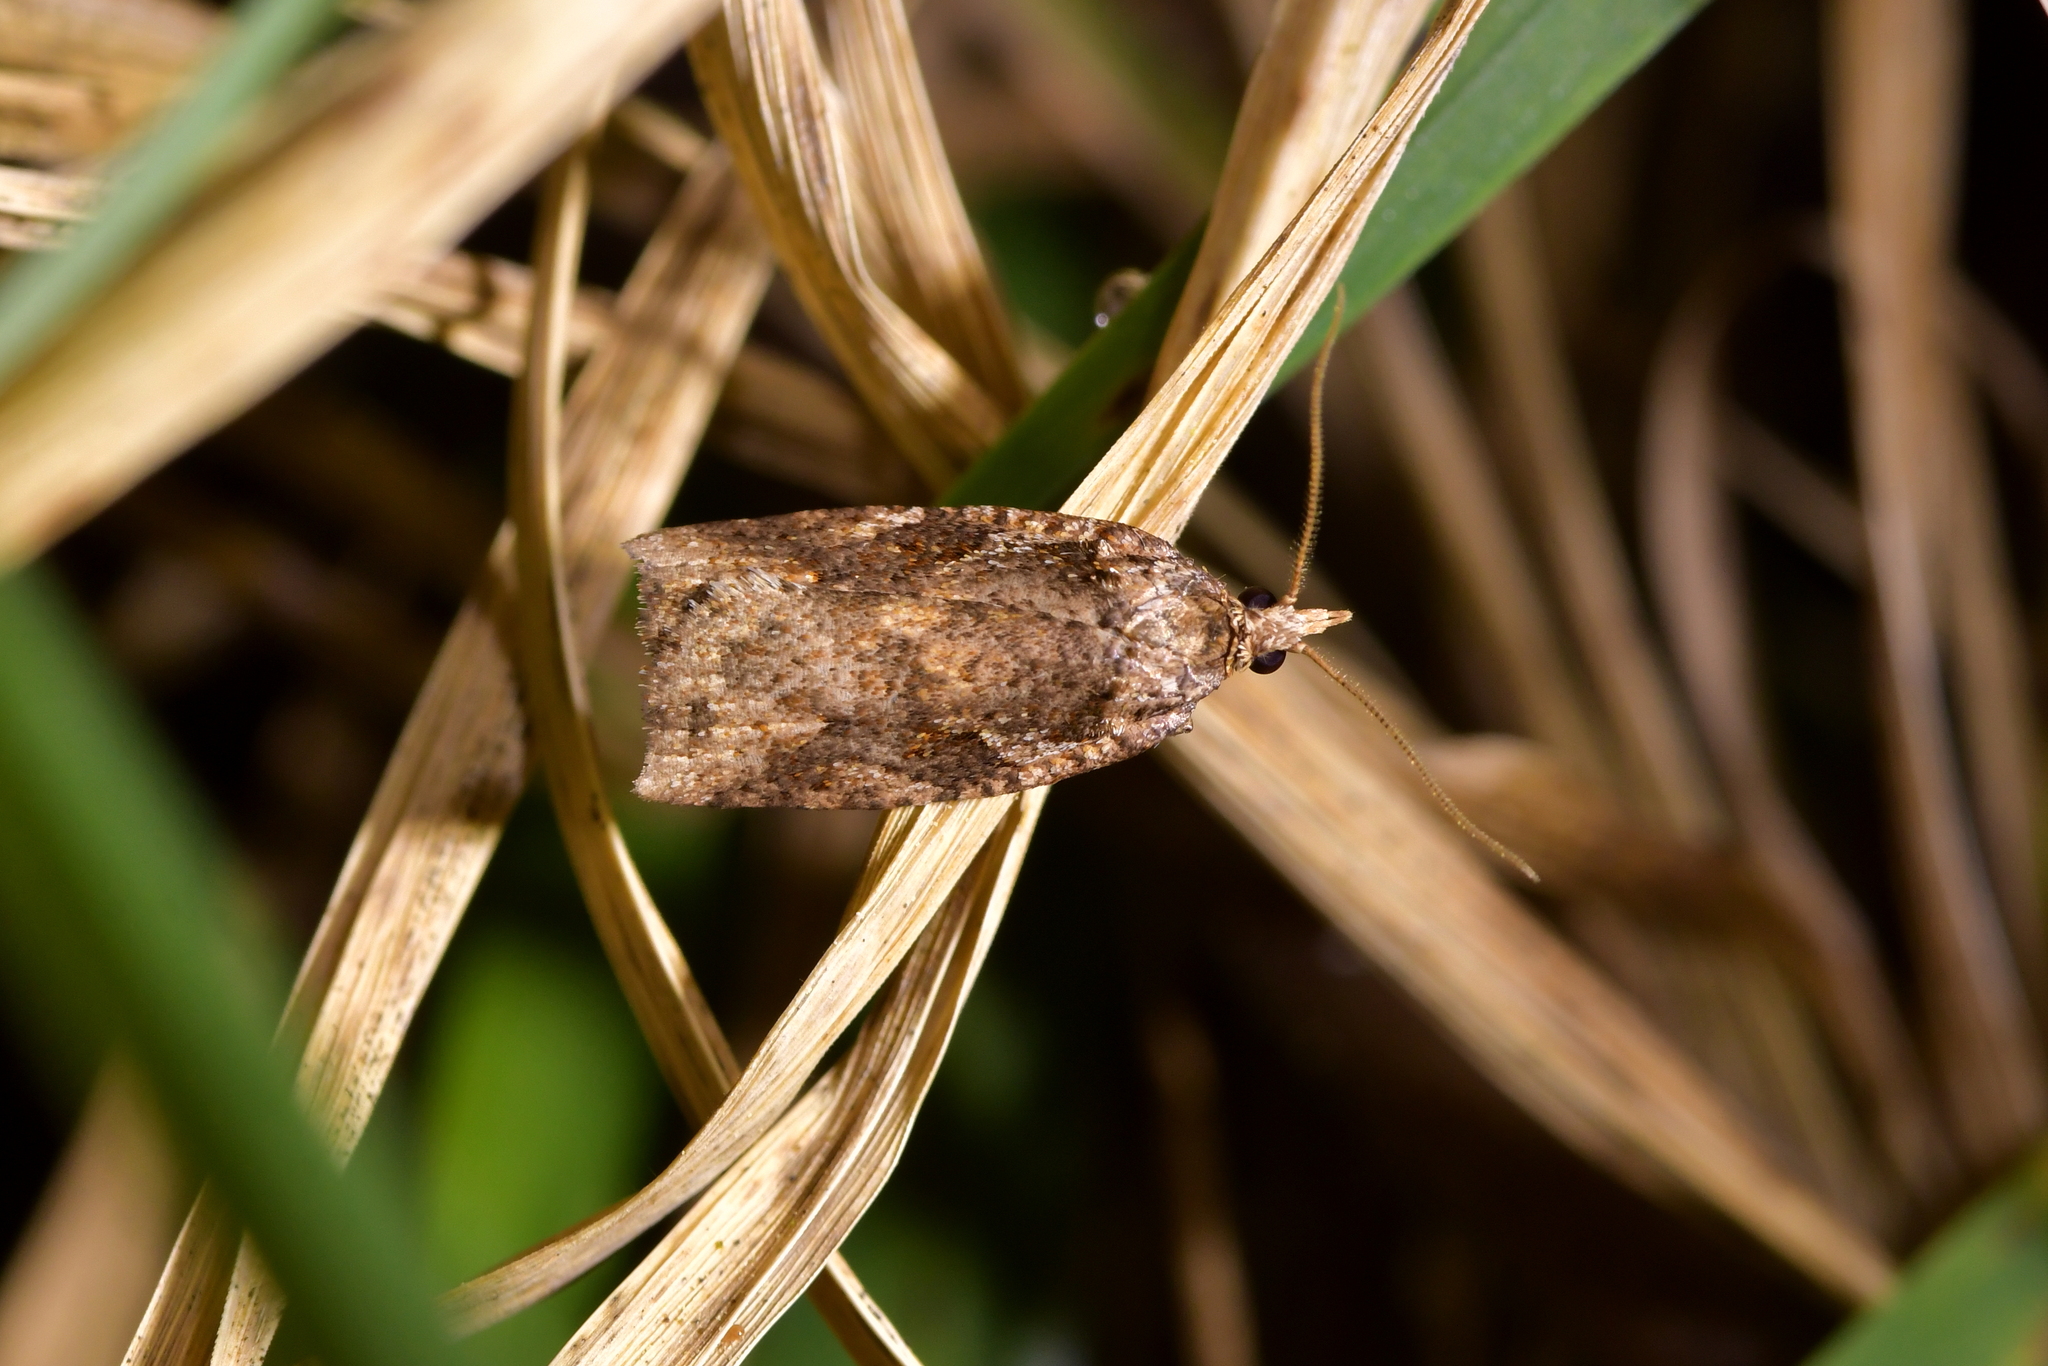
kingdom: Animalia
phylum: Arthropoda
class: Insecta
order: Lepidoptera
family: Tortricidae
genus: Ctenopseustis
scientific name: Ctenopseustis obliquana
